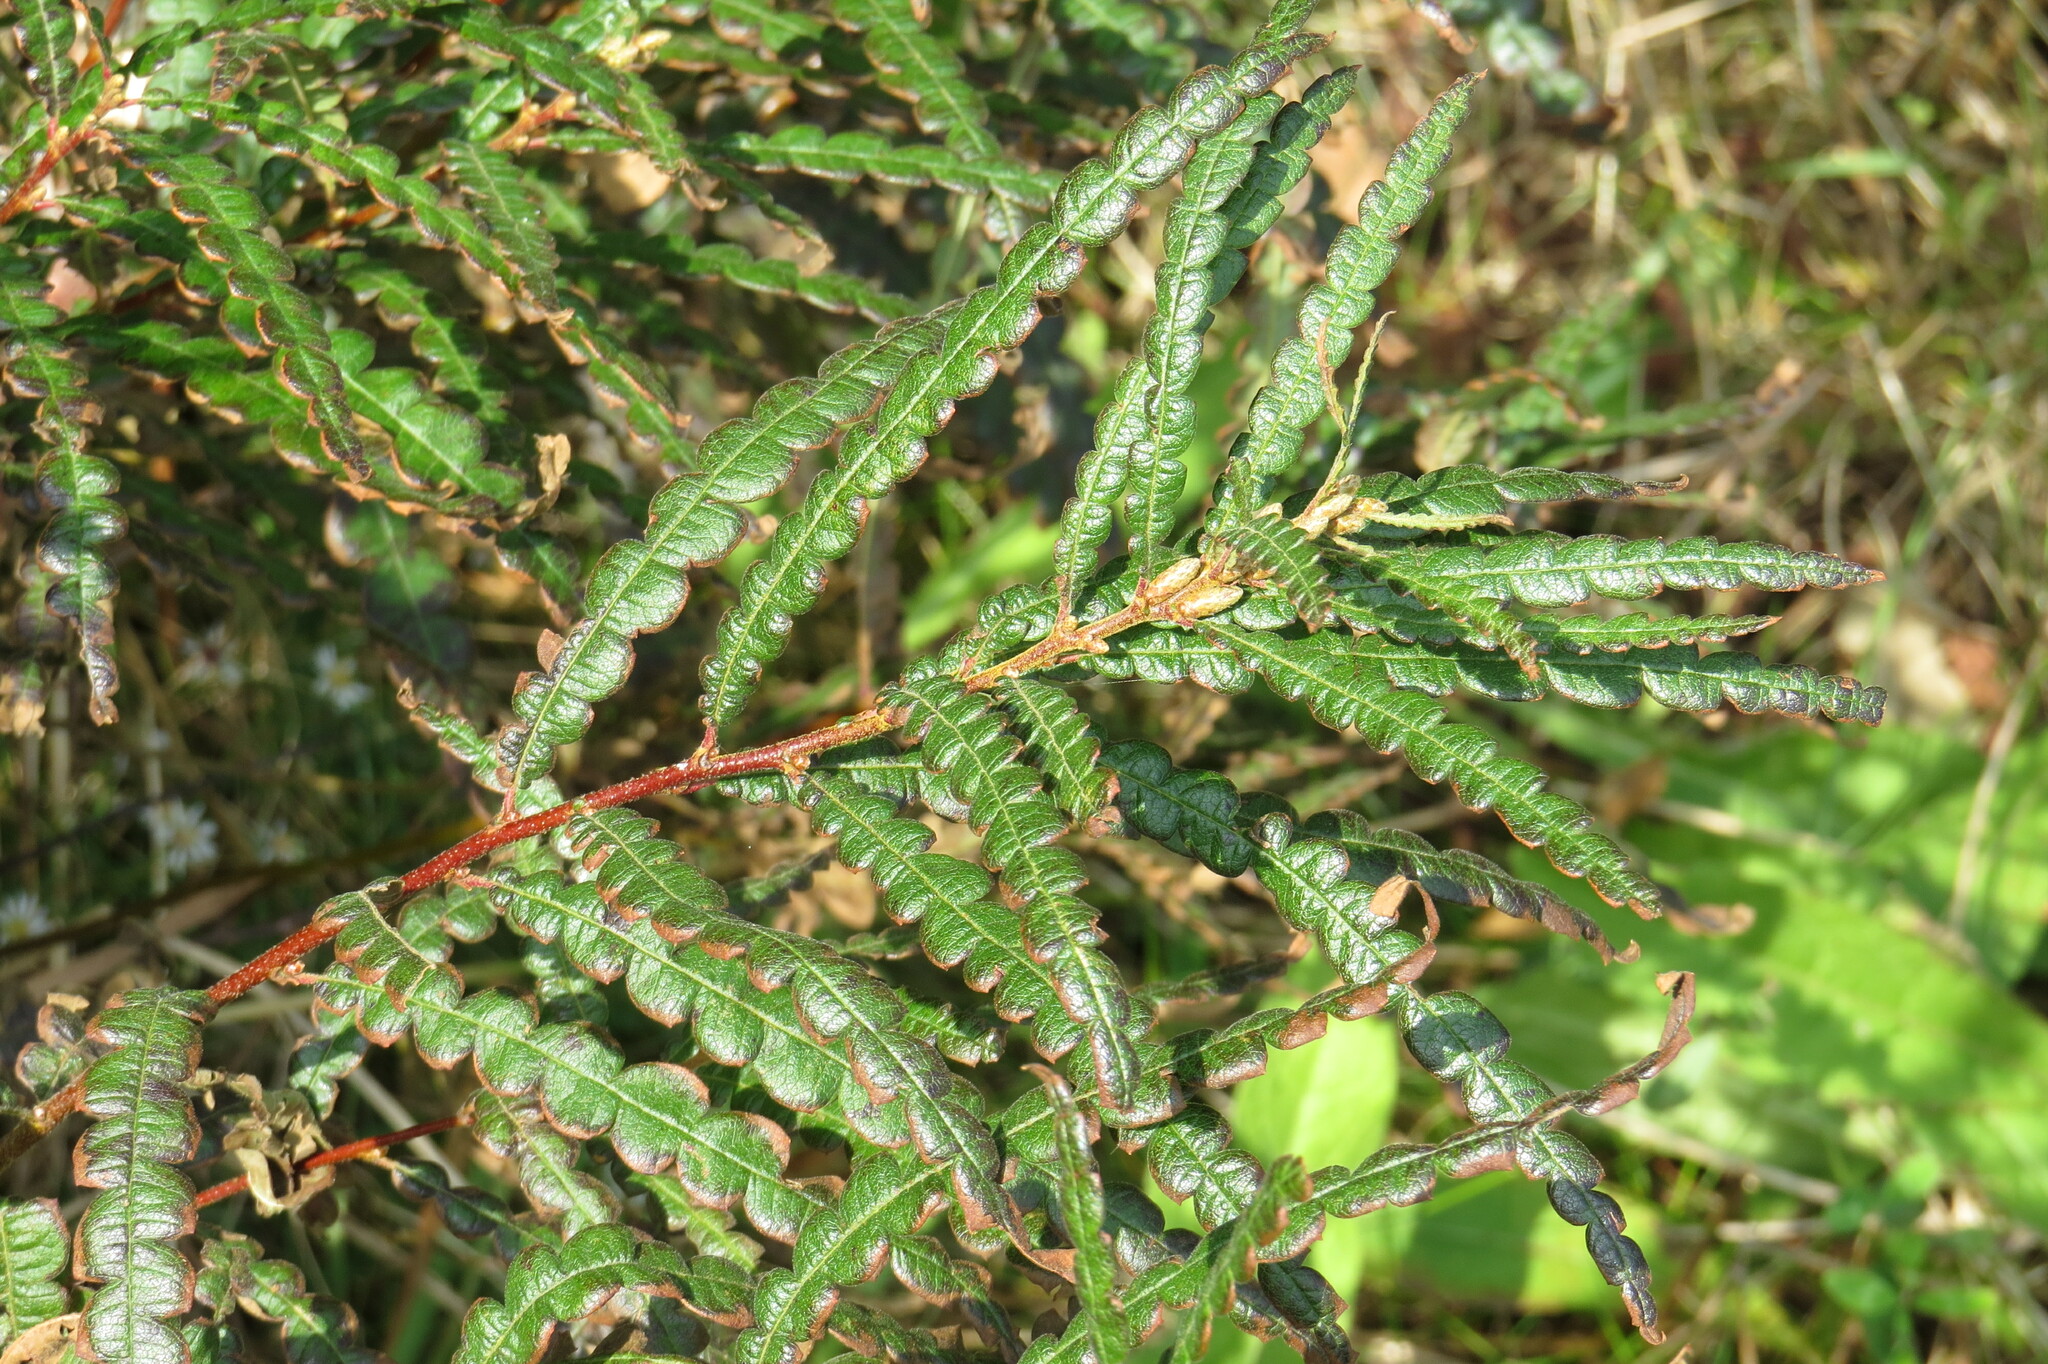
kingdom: Plantae
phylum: Tracheophyta
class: Magnoliopsida
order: Fagales
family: Myricaceae
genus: Comptonia
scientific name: Comptonia peregrina
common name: Sweet-fern
